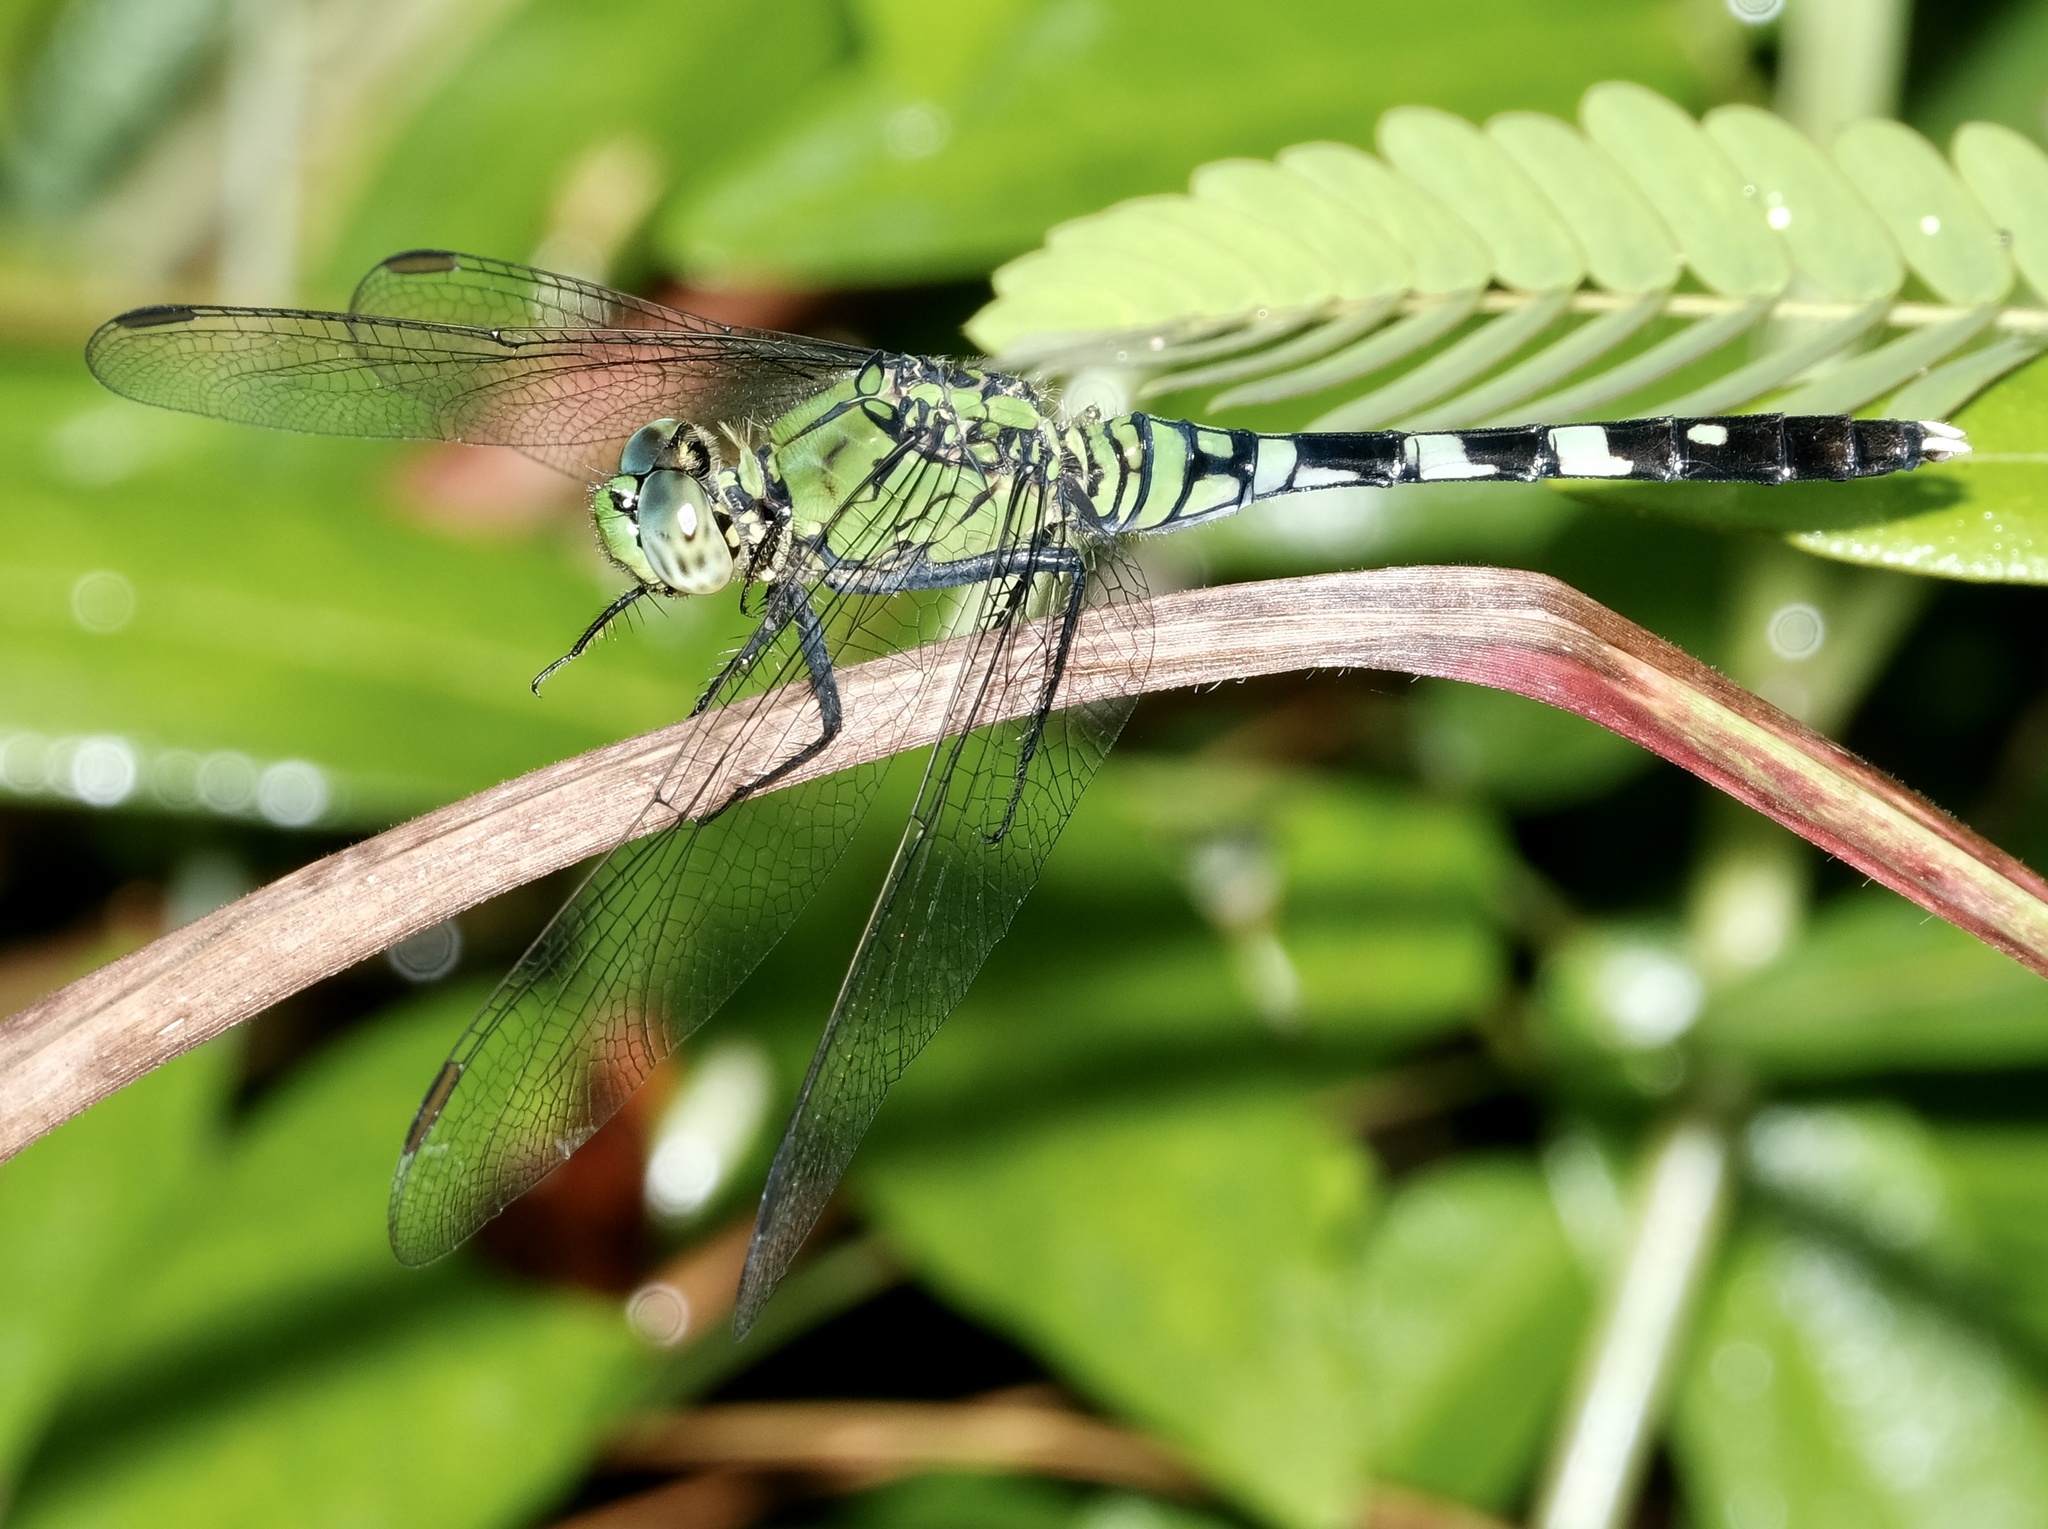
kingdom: Animalia
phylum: Arthropoda
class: Insecta
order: Odonata
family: Libellulidae
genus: Erythemis
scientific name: Erythemis simplicicollis
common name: Eastern pondhawk
